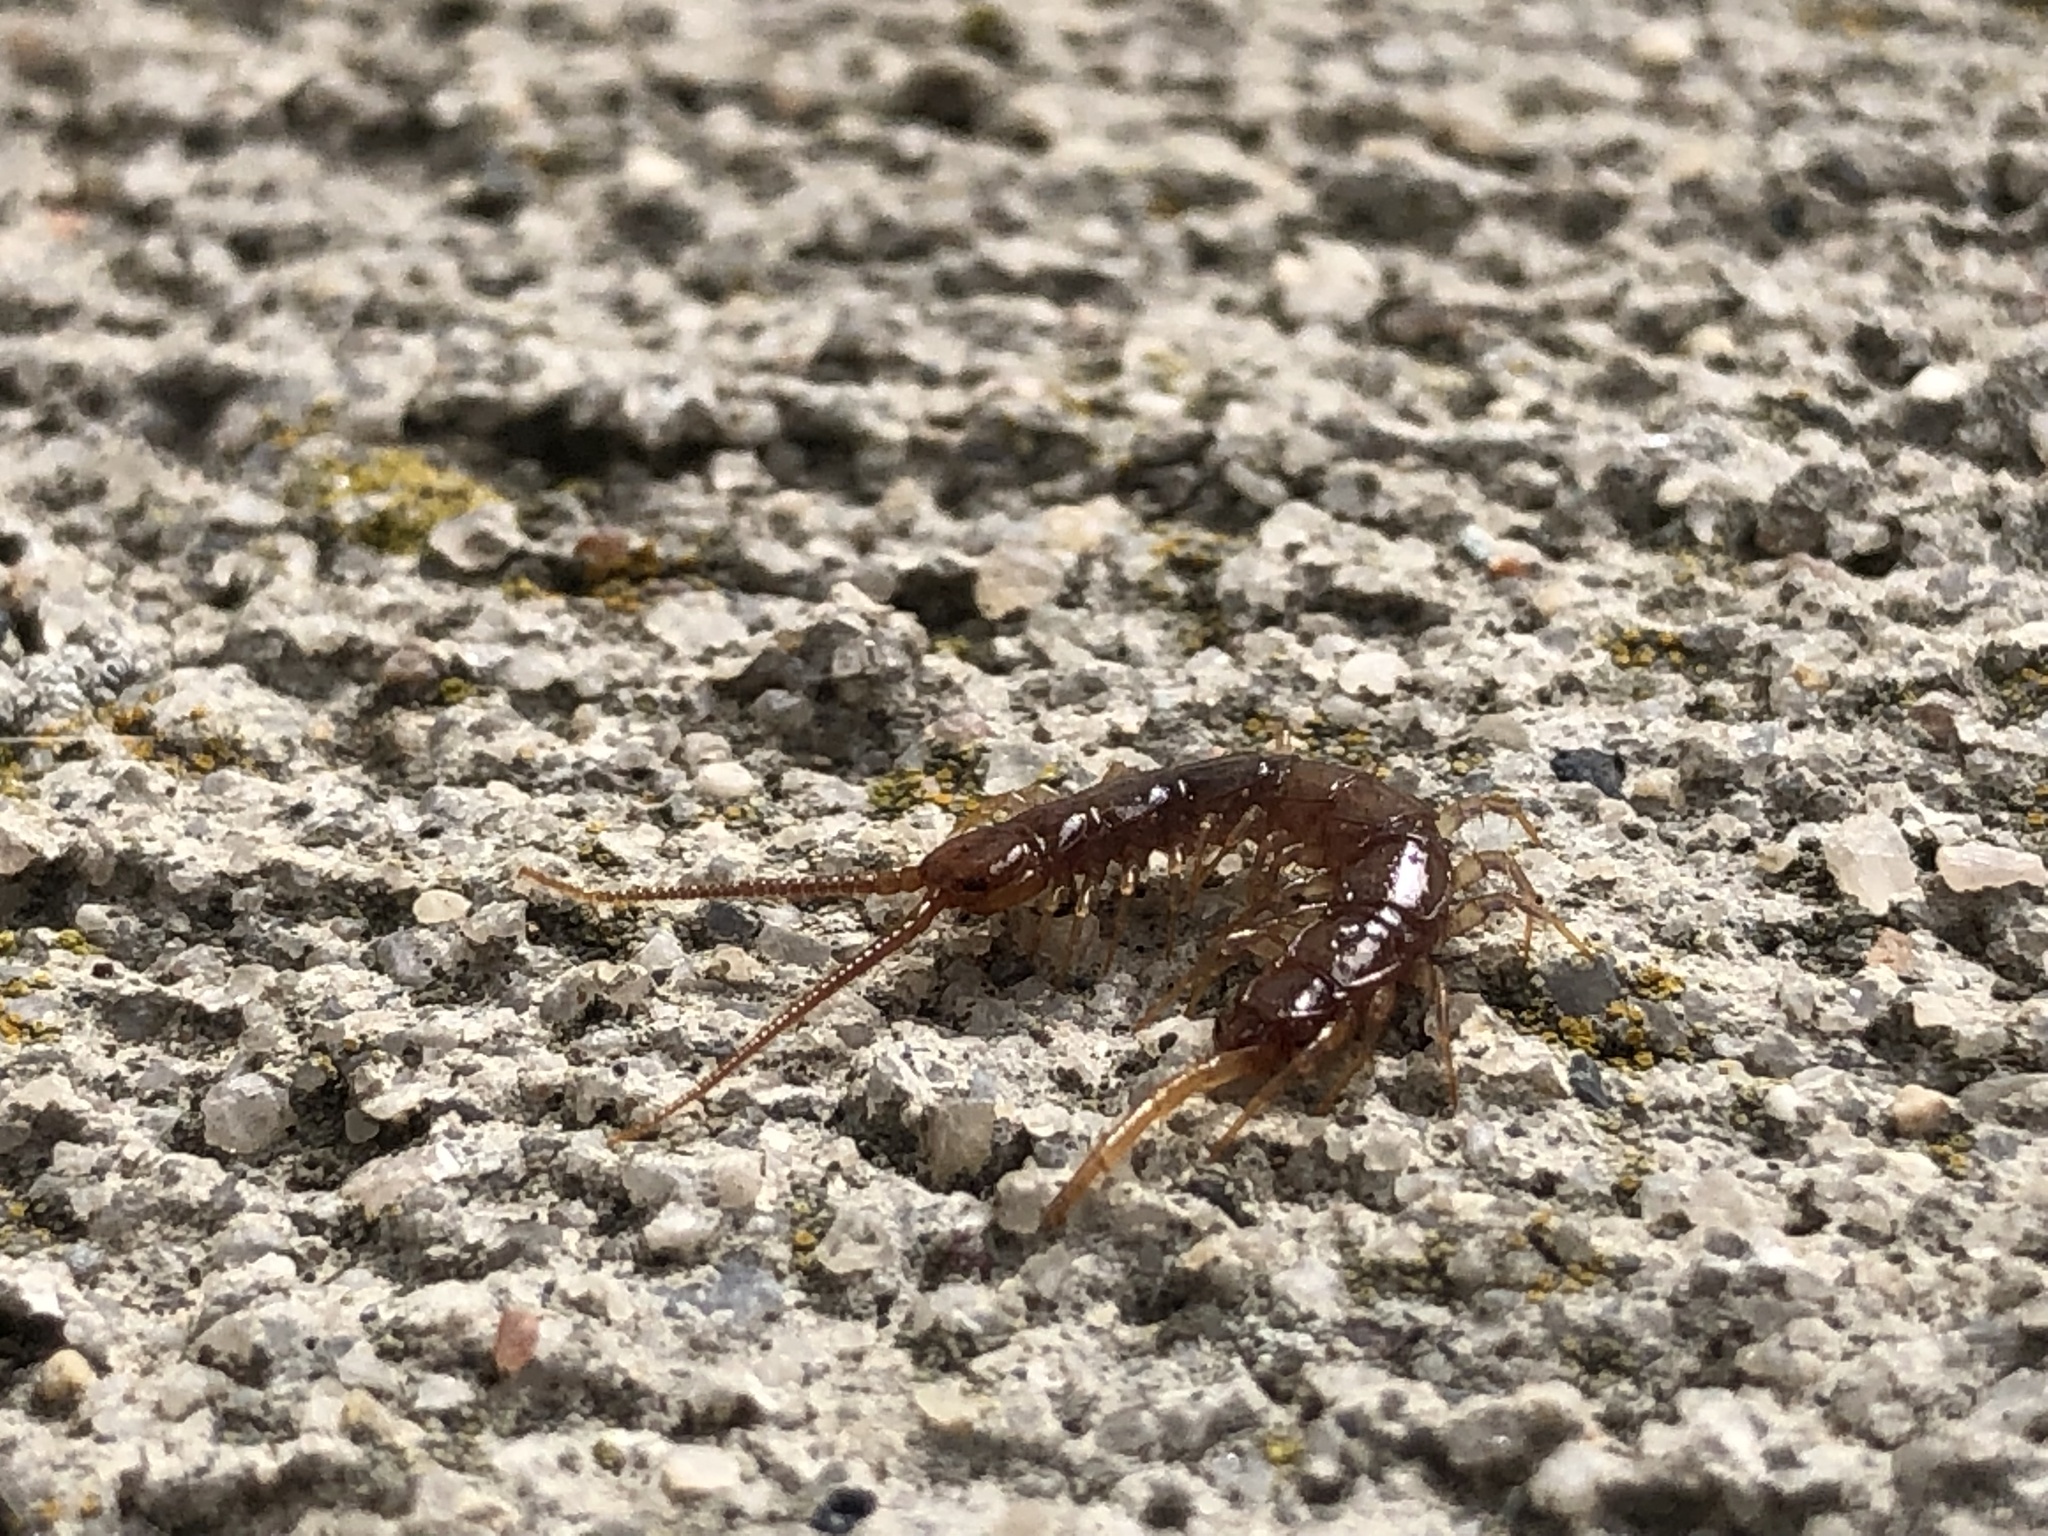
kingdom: Animalia
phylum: Arthropoda
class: Chilopoda
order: Lithobiomorpha
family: Lithobiidae
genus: Lithobius
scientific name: Lithobius forficatus
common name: Centipede
